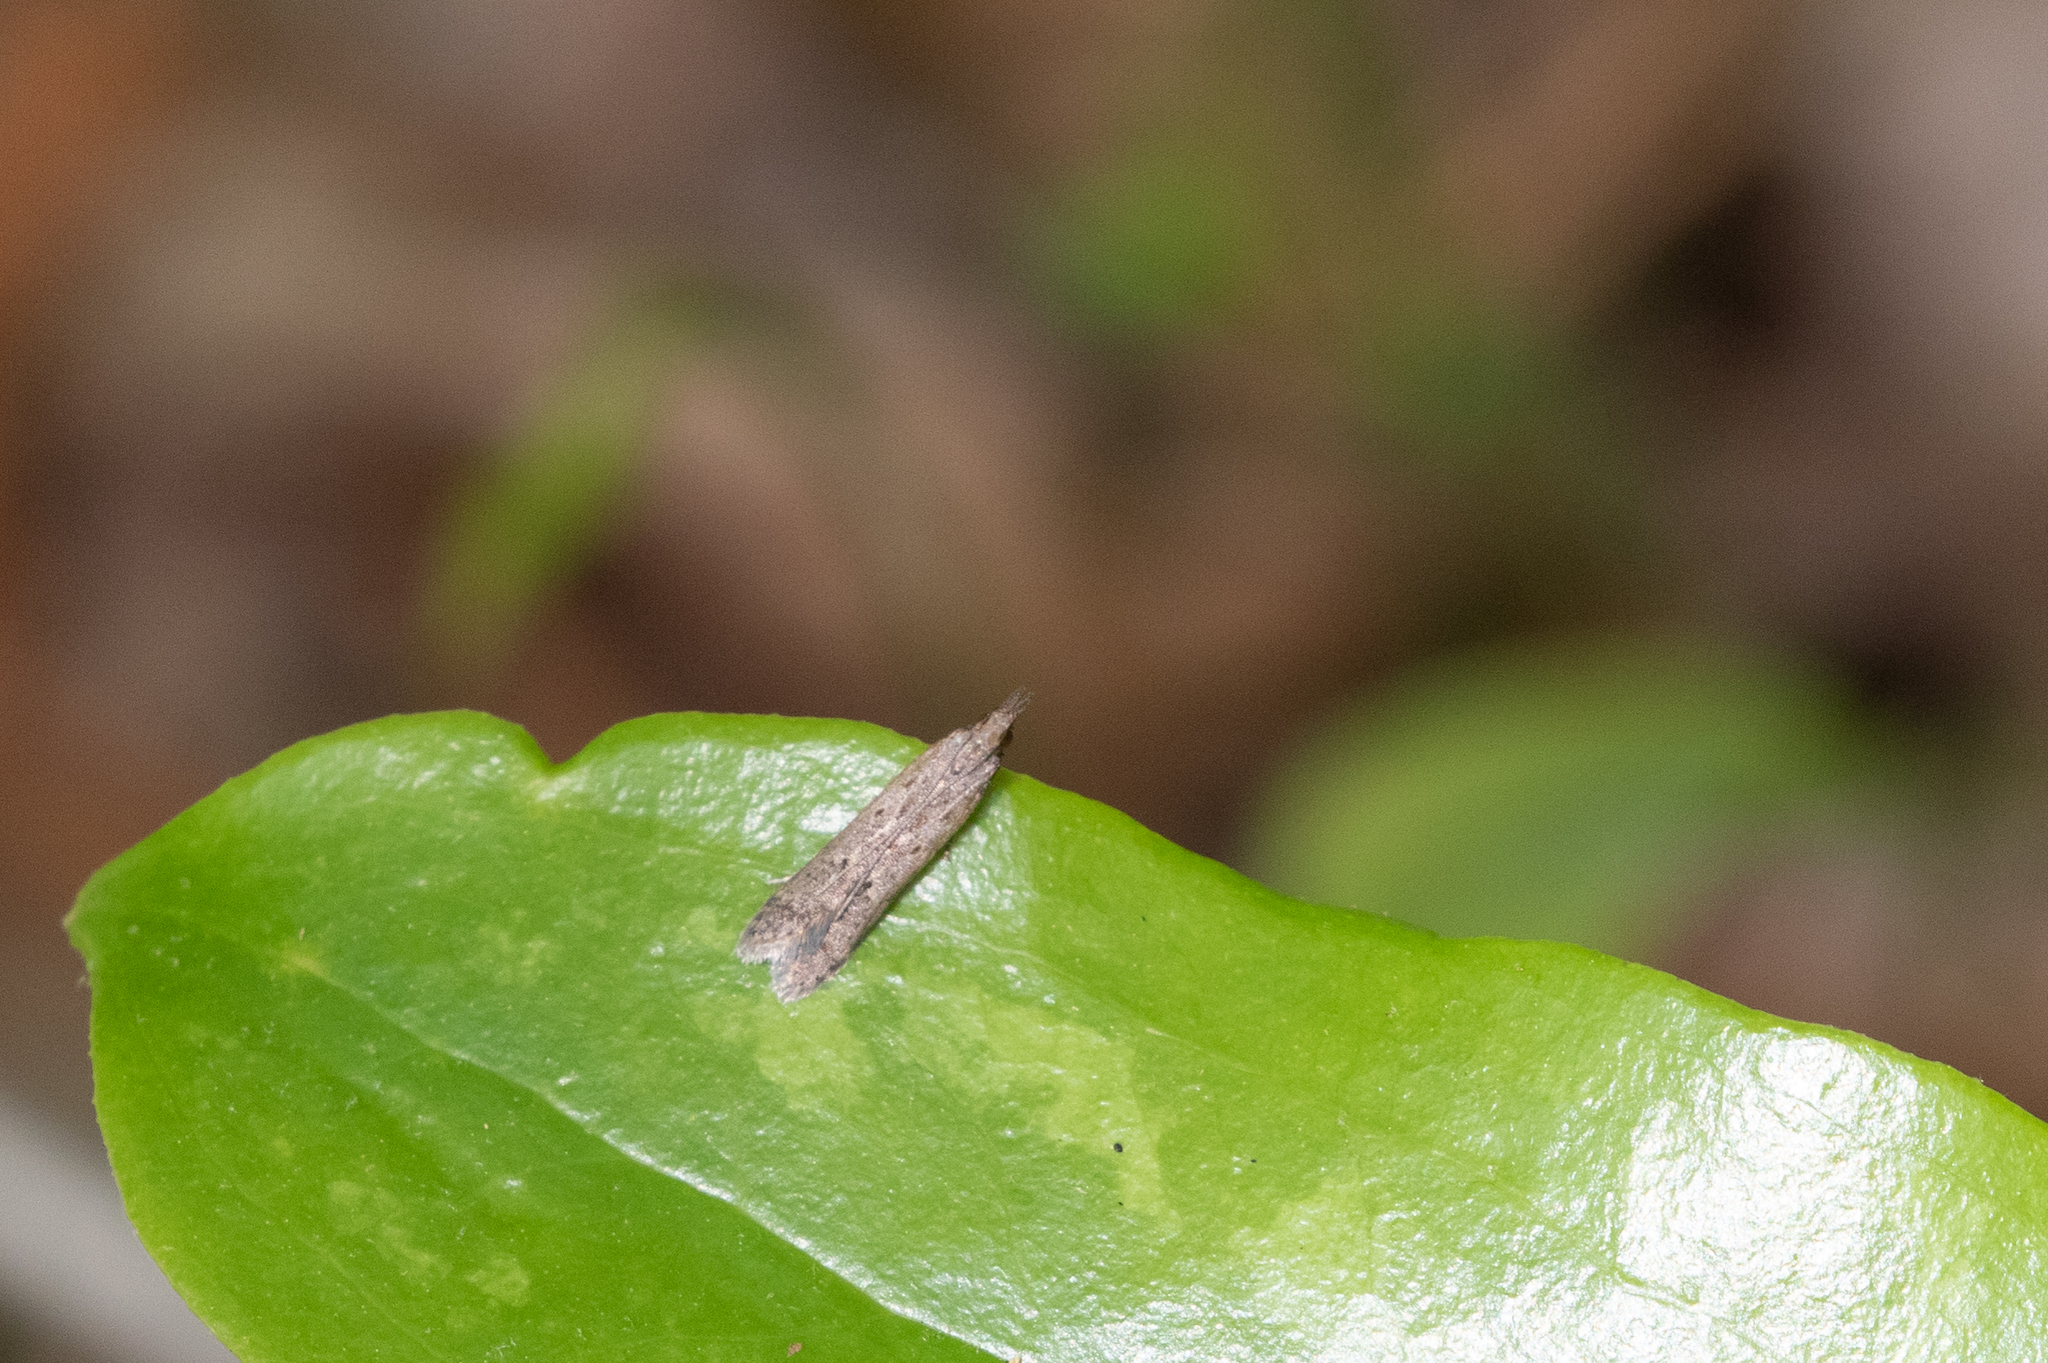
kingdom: Animalia
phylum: Arthropoda
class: Insecta
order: Lepidoptera
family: Gelechiidae
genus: Dichomeris
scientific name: Dichomeris ligulella
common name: Moth
